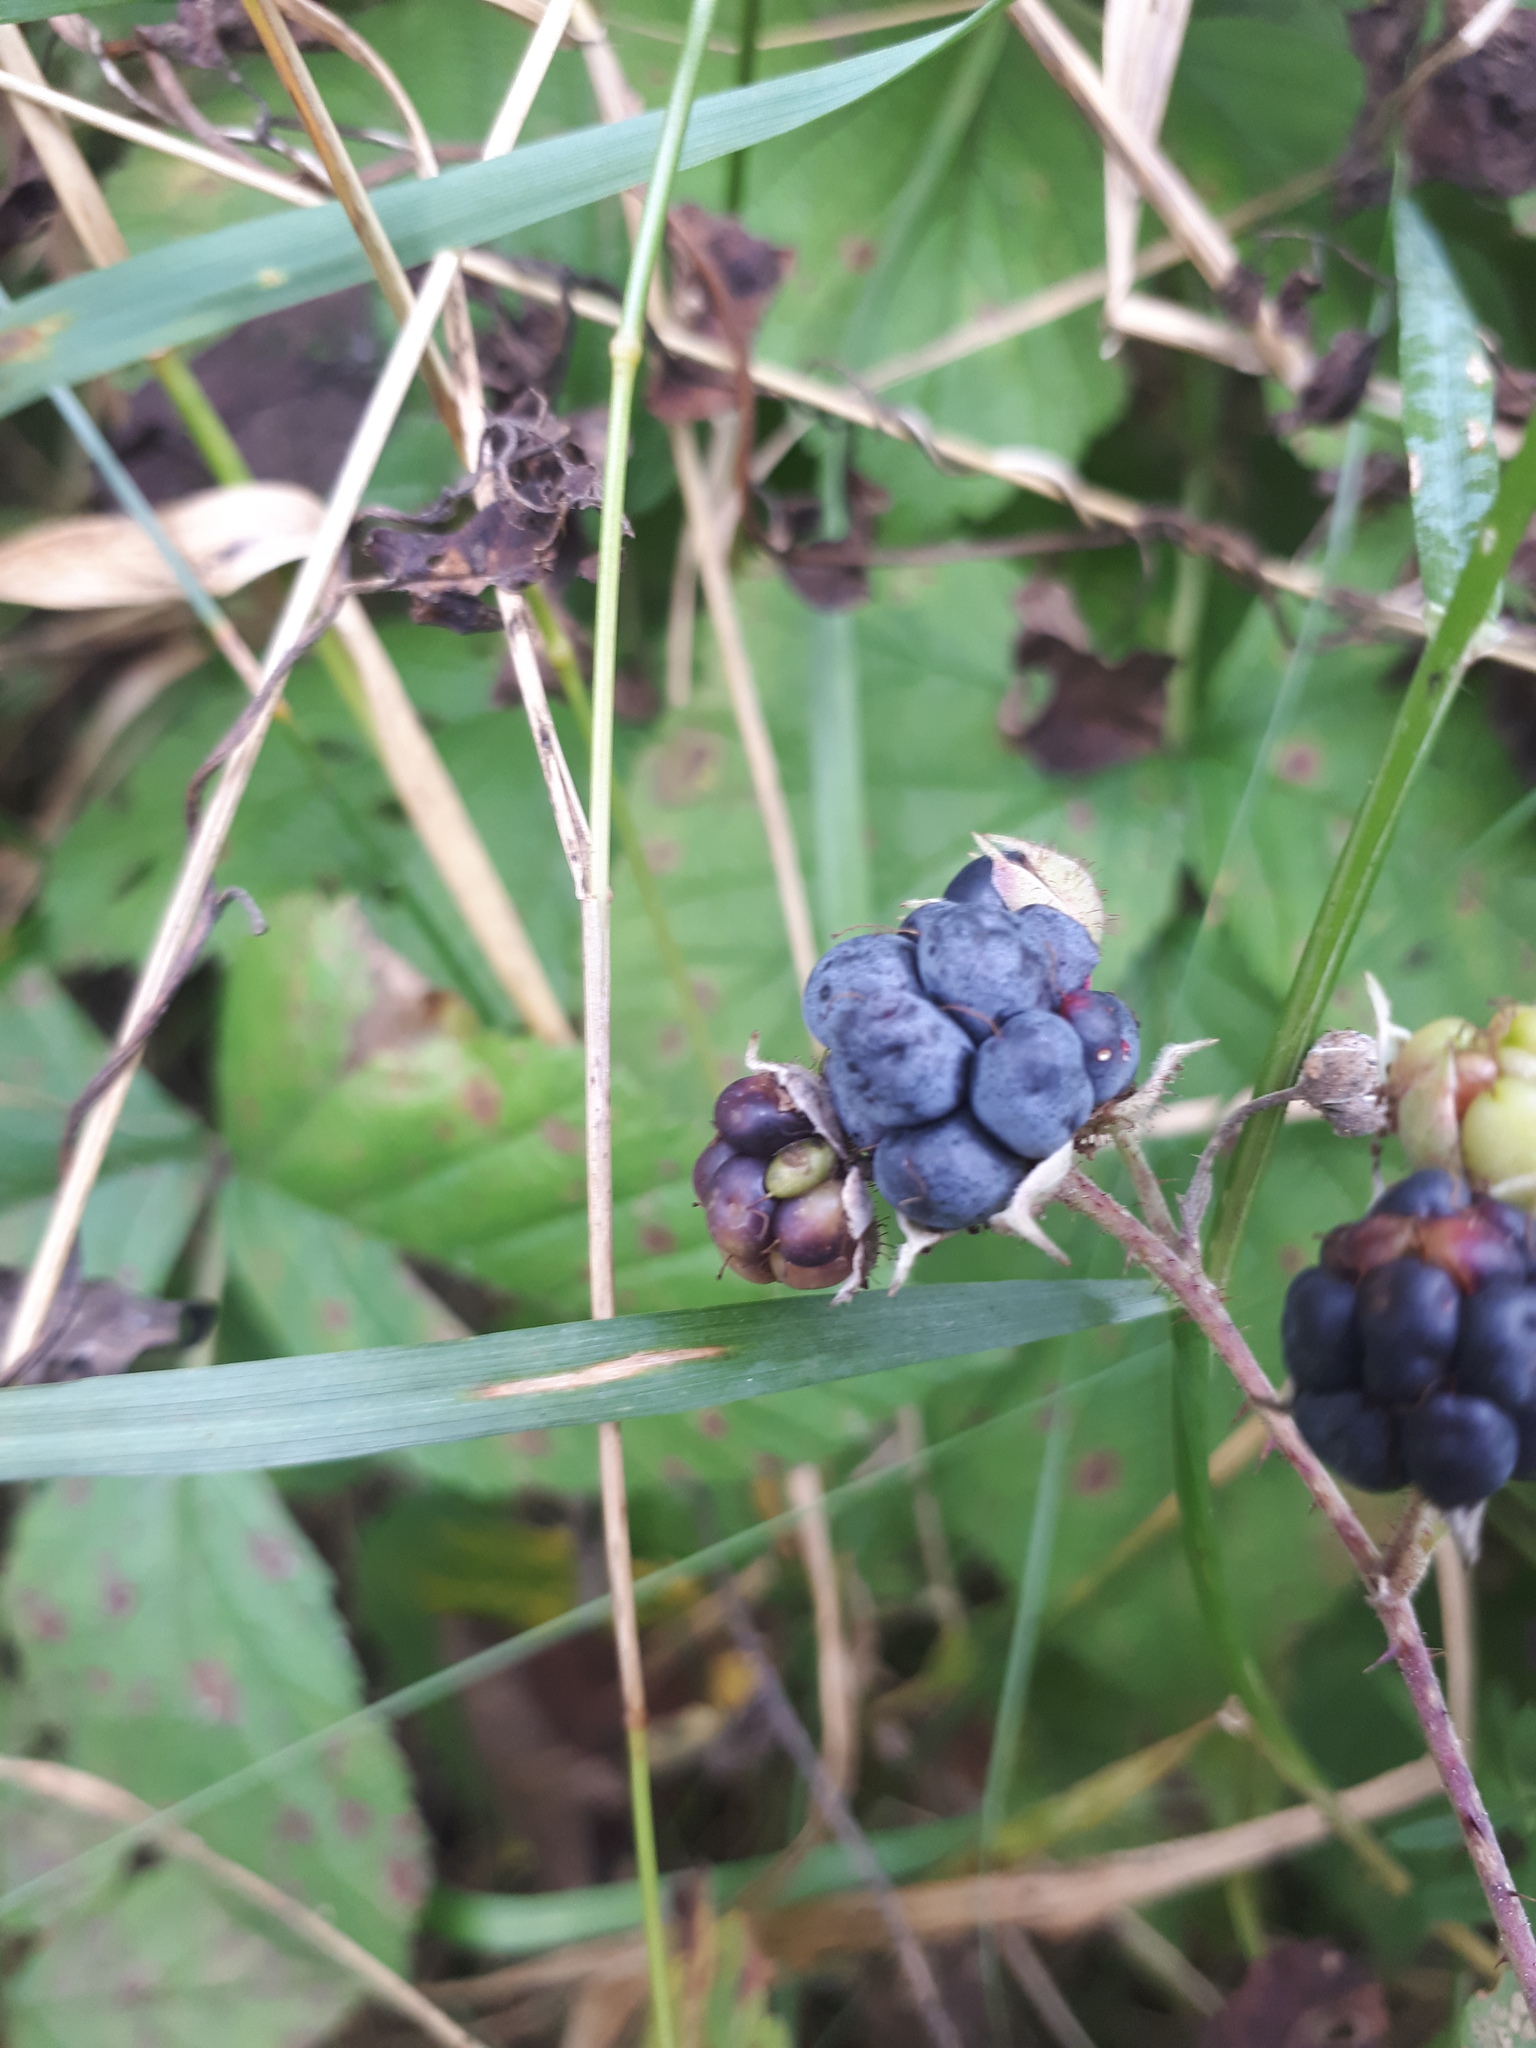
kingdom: Plantae
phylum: Tracheophyta
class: Magnoliopsida
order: Rosales
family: Rosaceae
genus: Rubus
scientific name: Rubus caesius
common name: Dewberry
